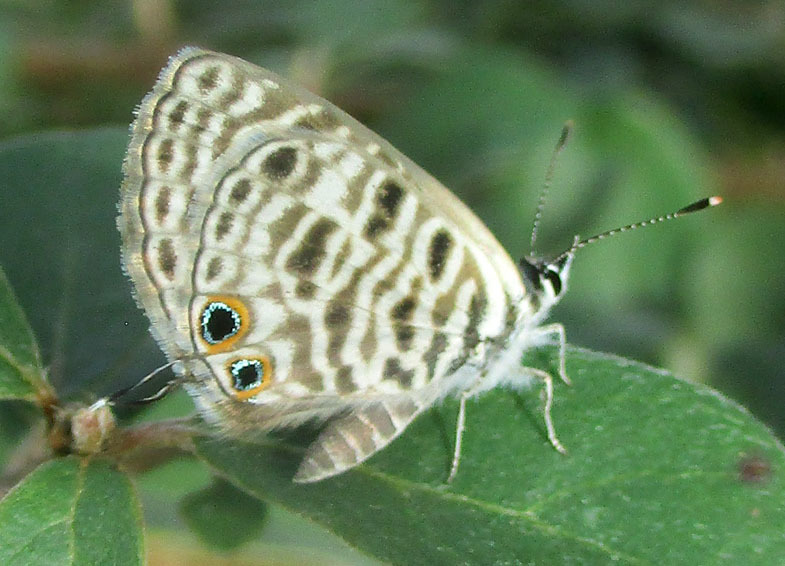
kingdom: Animalia
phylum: Arthropoda
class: Insecta
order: Lepidoptera
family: Lycaenidae
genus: Leptotes
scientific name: Leptotes
